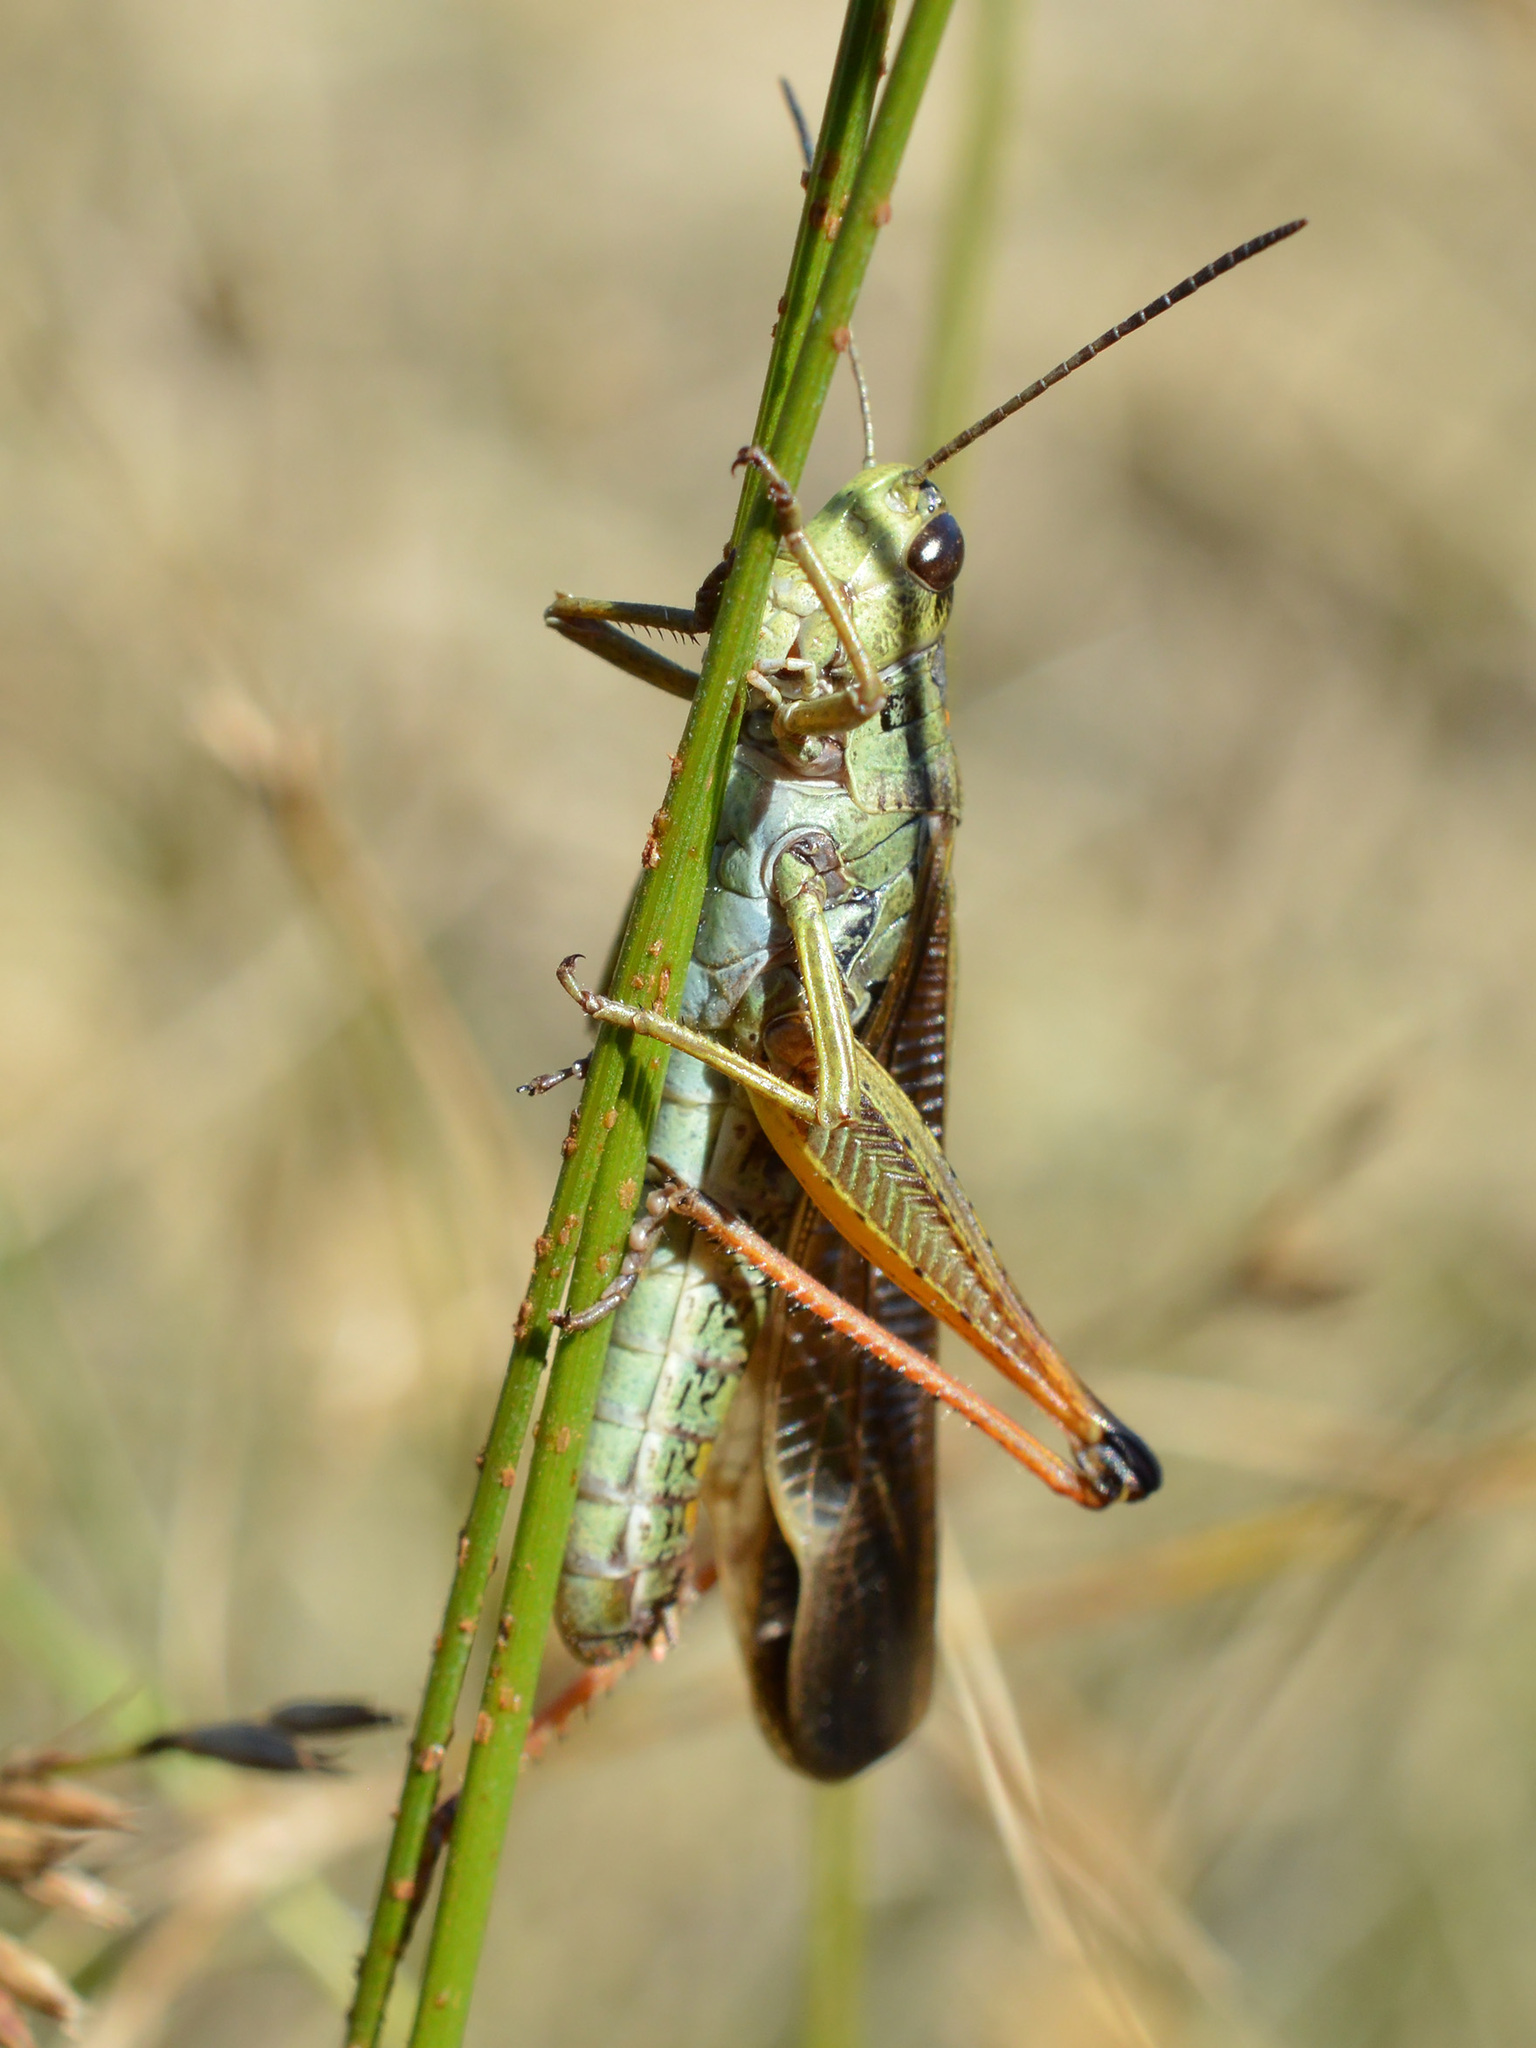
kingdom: Animalia
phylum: Arthropoda
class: Insecta
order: Orthoptera
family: Acrididae
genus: Stauroderus
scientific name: Stauroderus scalaris
